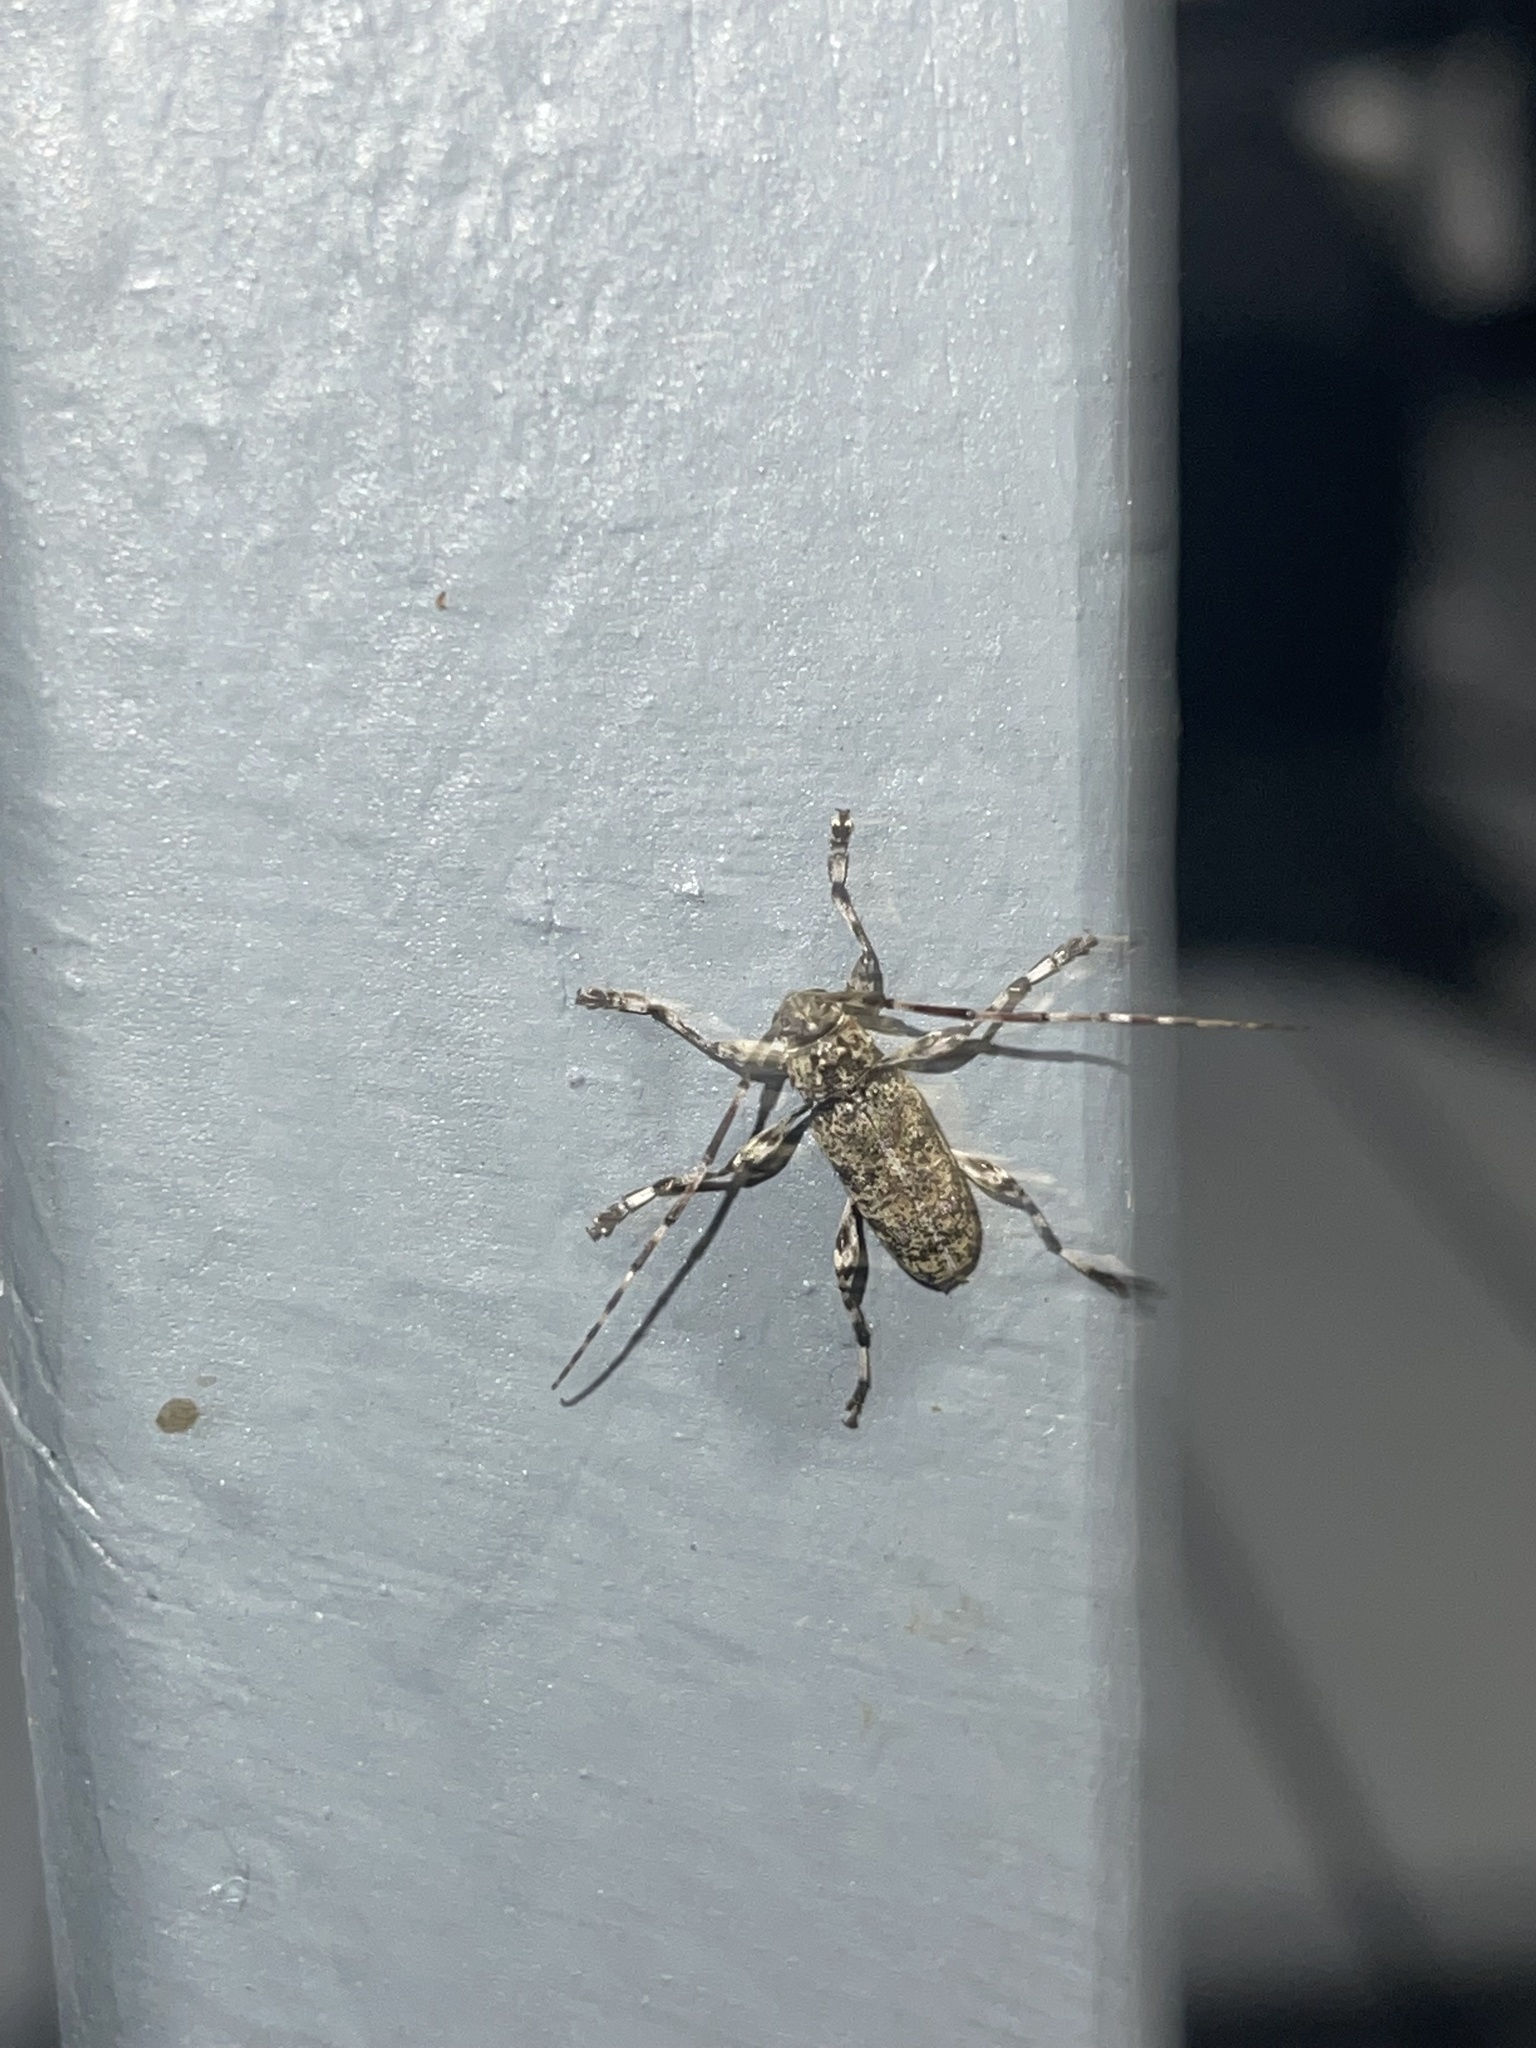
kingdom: Animalia
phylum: Arthropoda
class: Insecta
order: Coleoptera
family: Cerambycidae
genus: Graphisurus
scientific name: Graphisurus fasciatus
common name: Banded graphisurus
